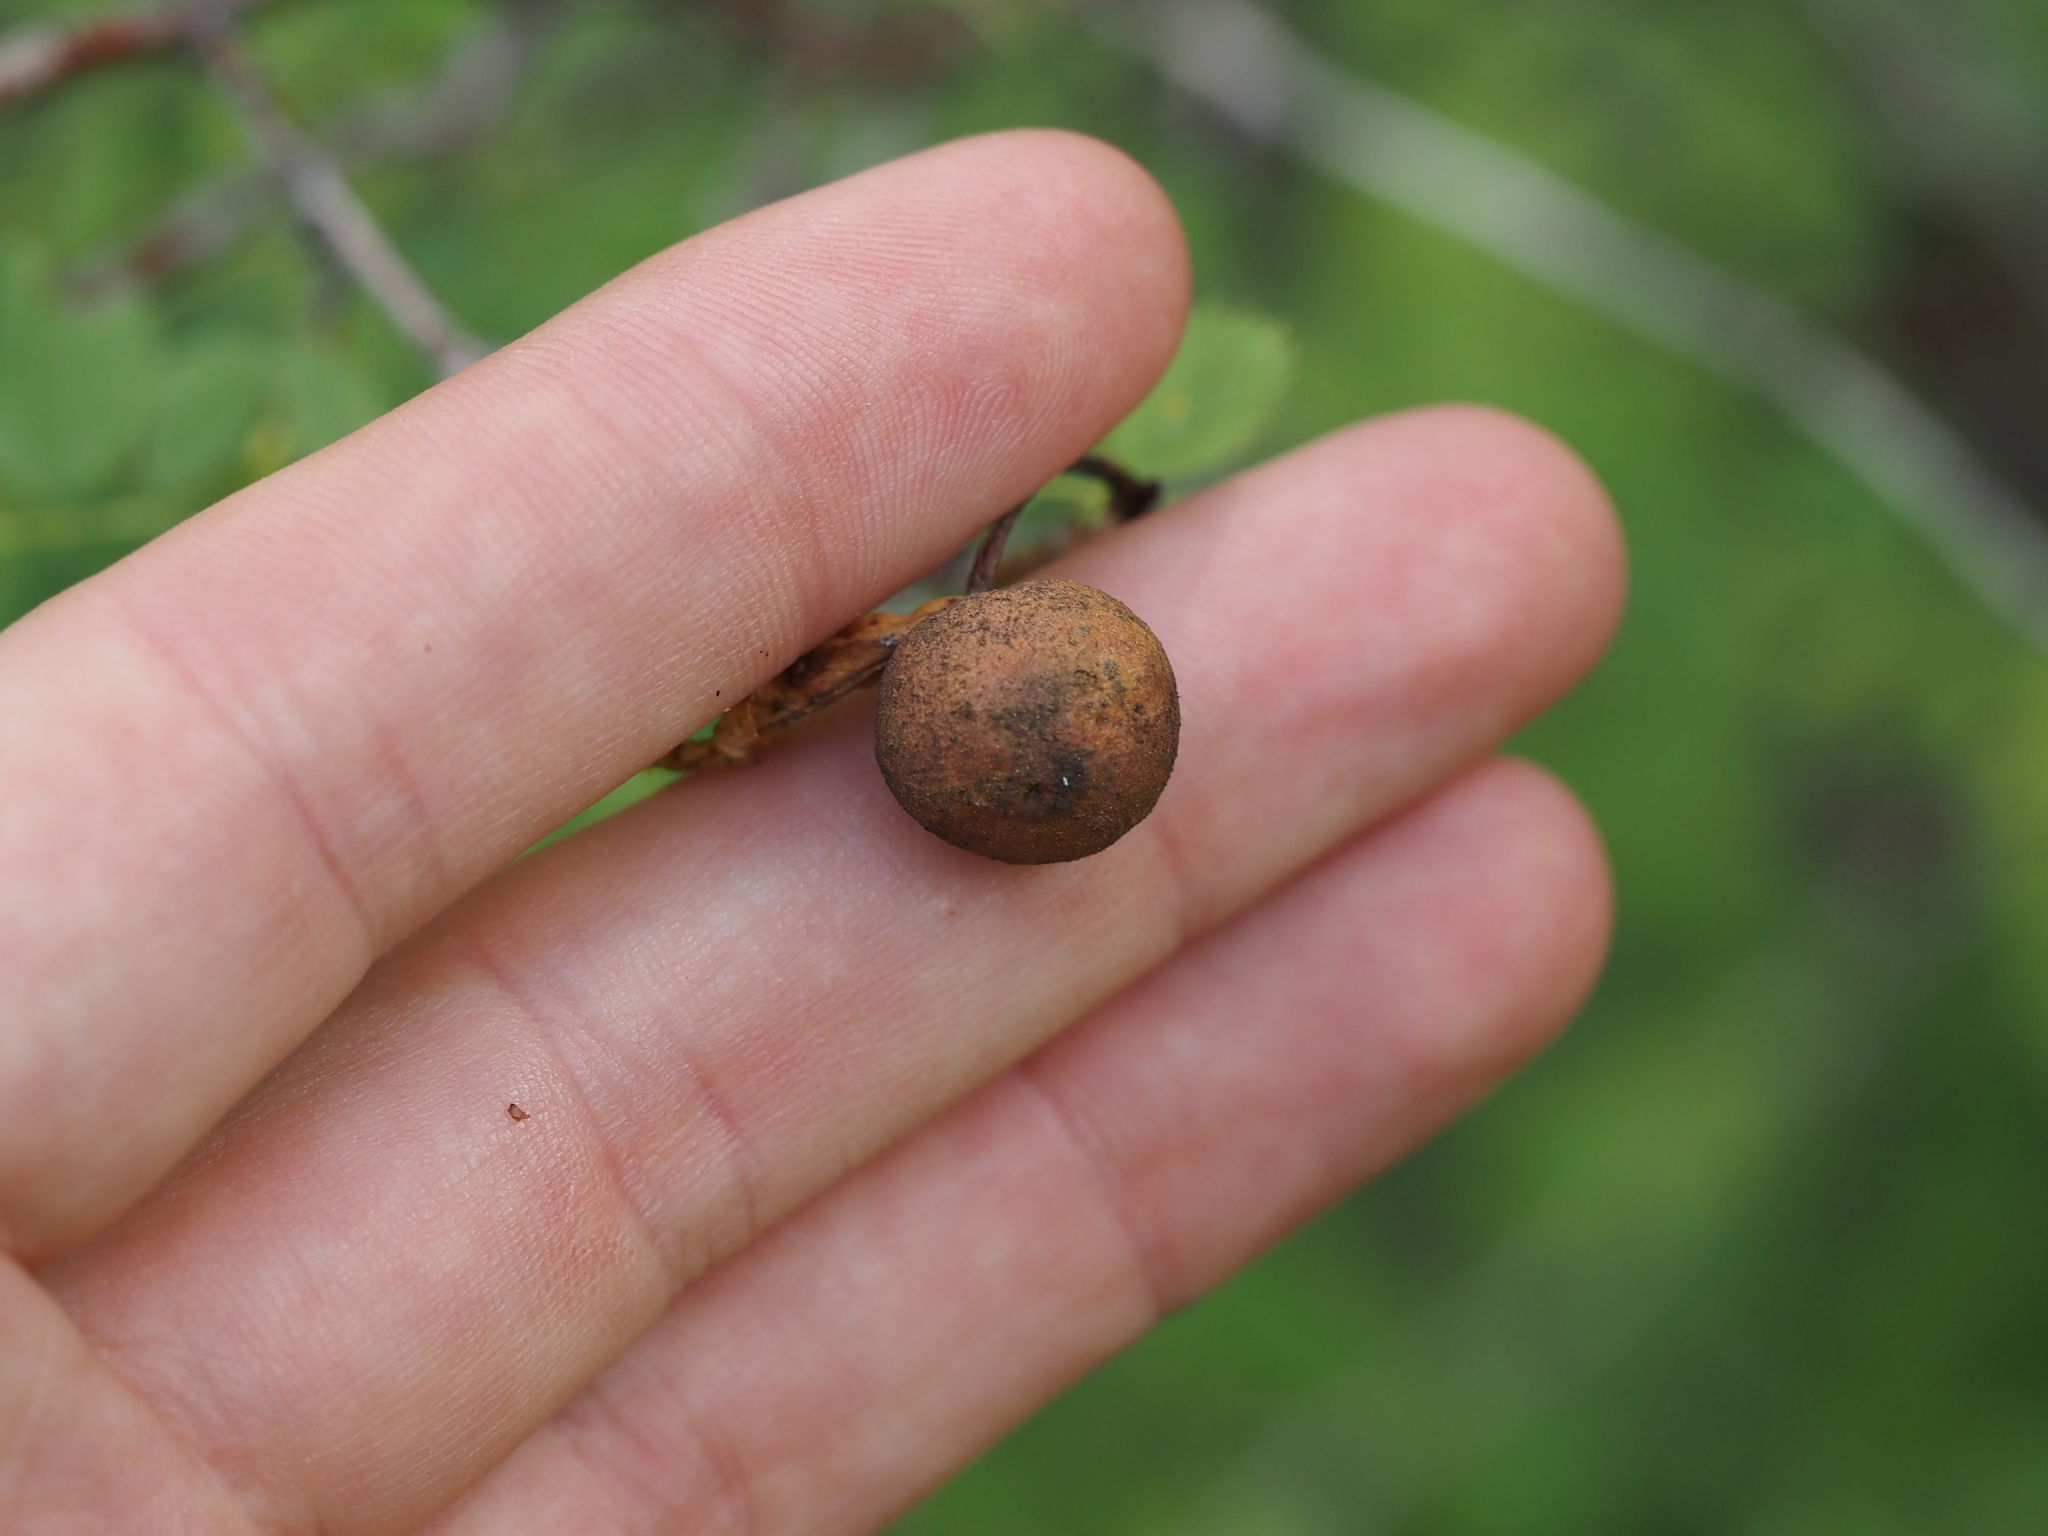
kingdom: Animalia
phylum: Arthropoda
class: Insecta
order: Hymenoptera
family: Cynipidae
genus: Diplolepis
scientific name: Diplolepis variabilis
